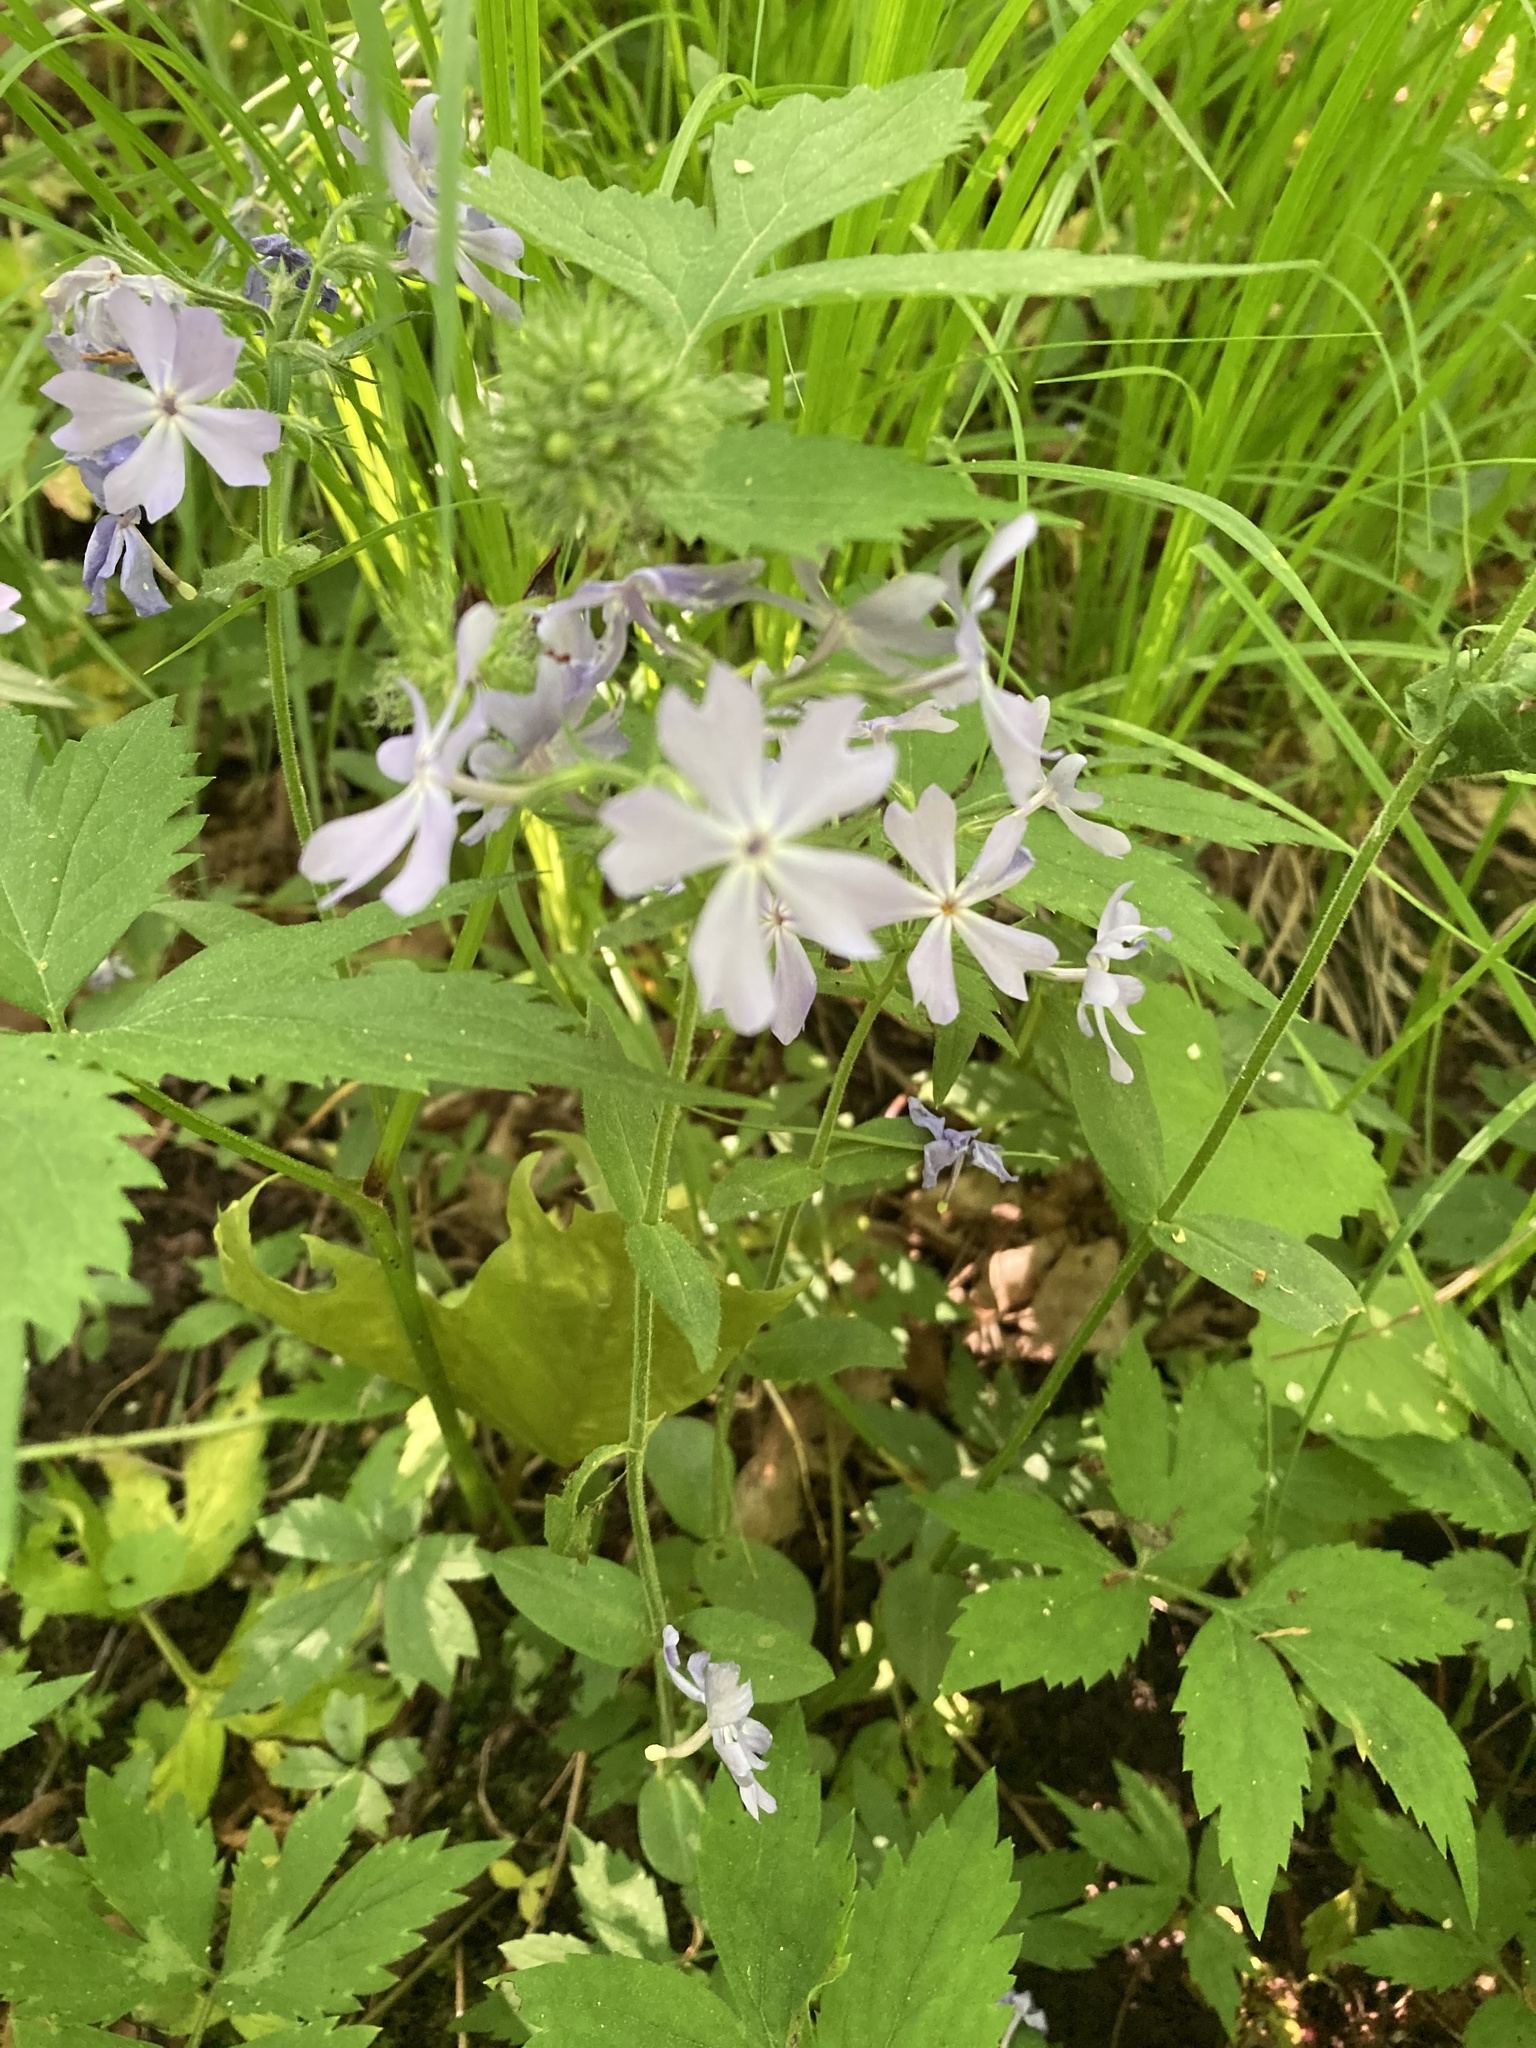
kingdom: Plantae
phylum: Tracheophyta
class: Magnoliopsida
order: Ericales
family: Polemoniaceae
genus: Phlox
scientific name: Phlox divaricata
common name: Blue phlox
